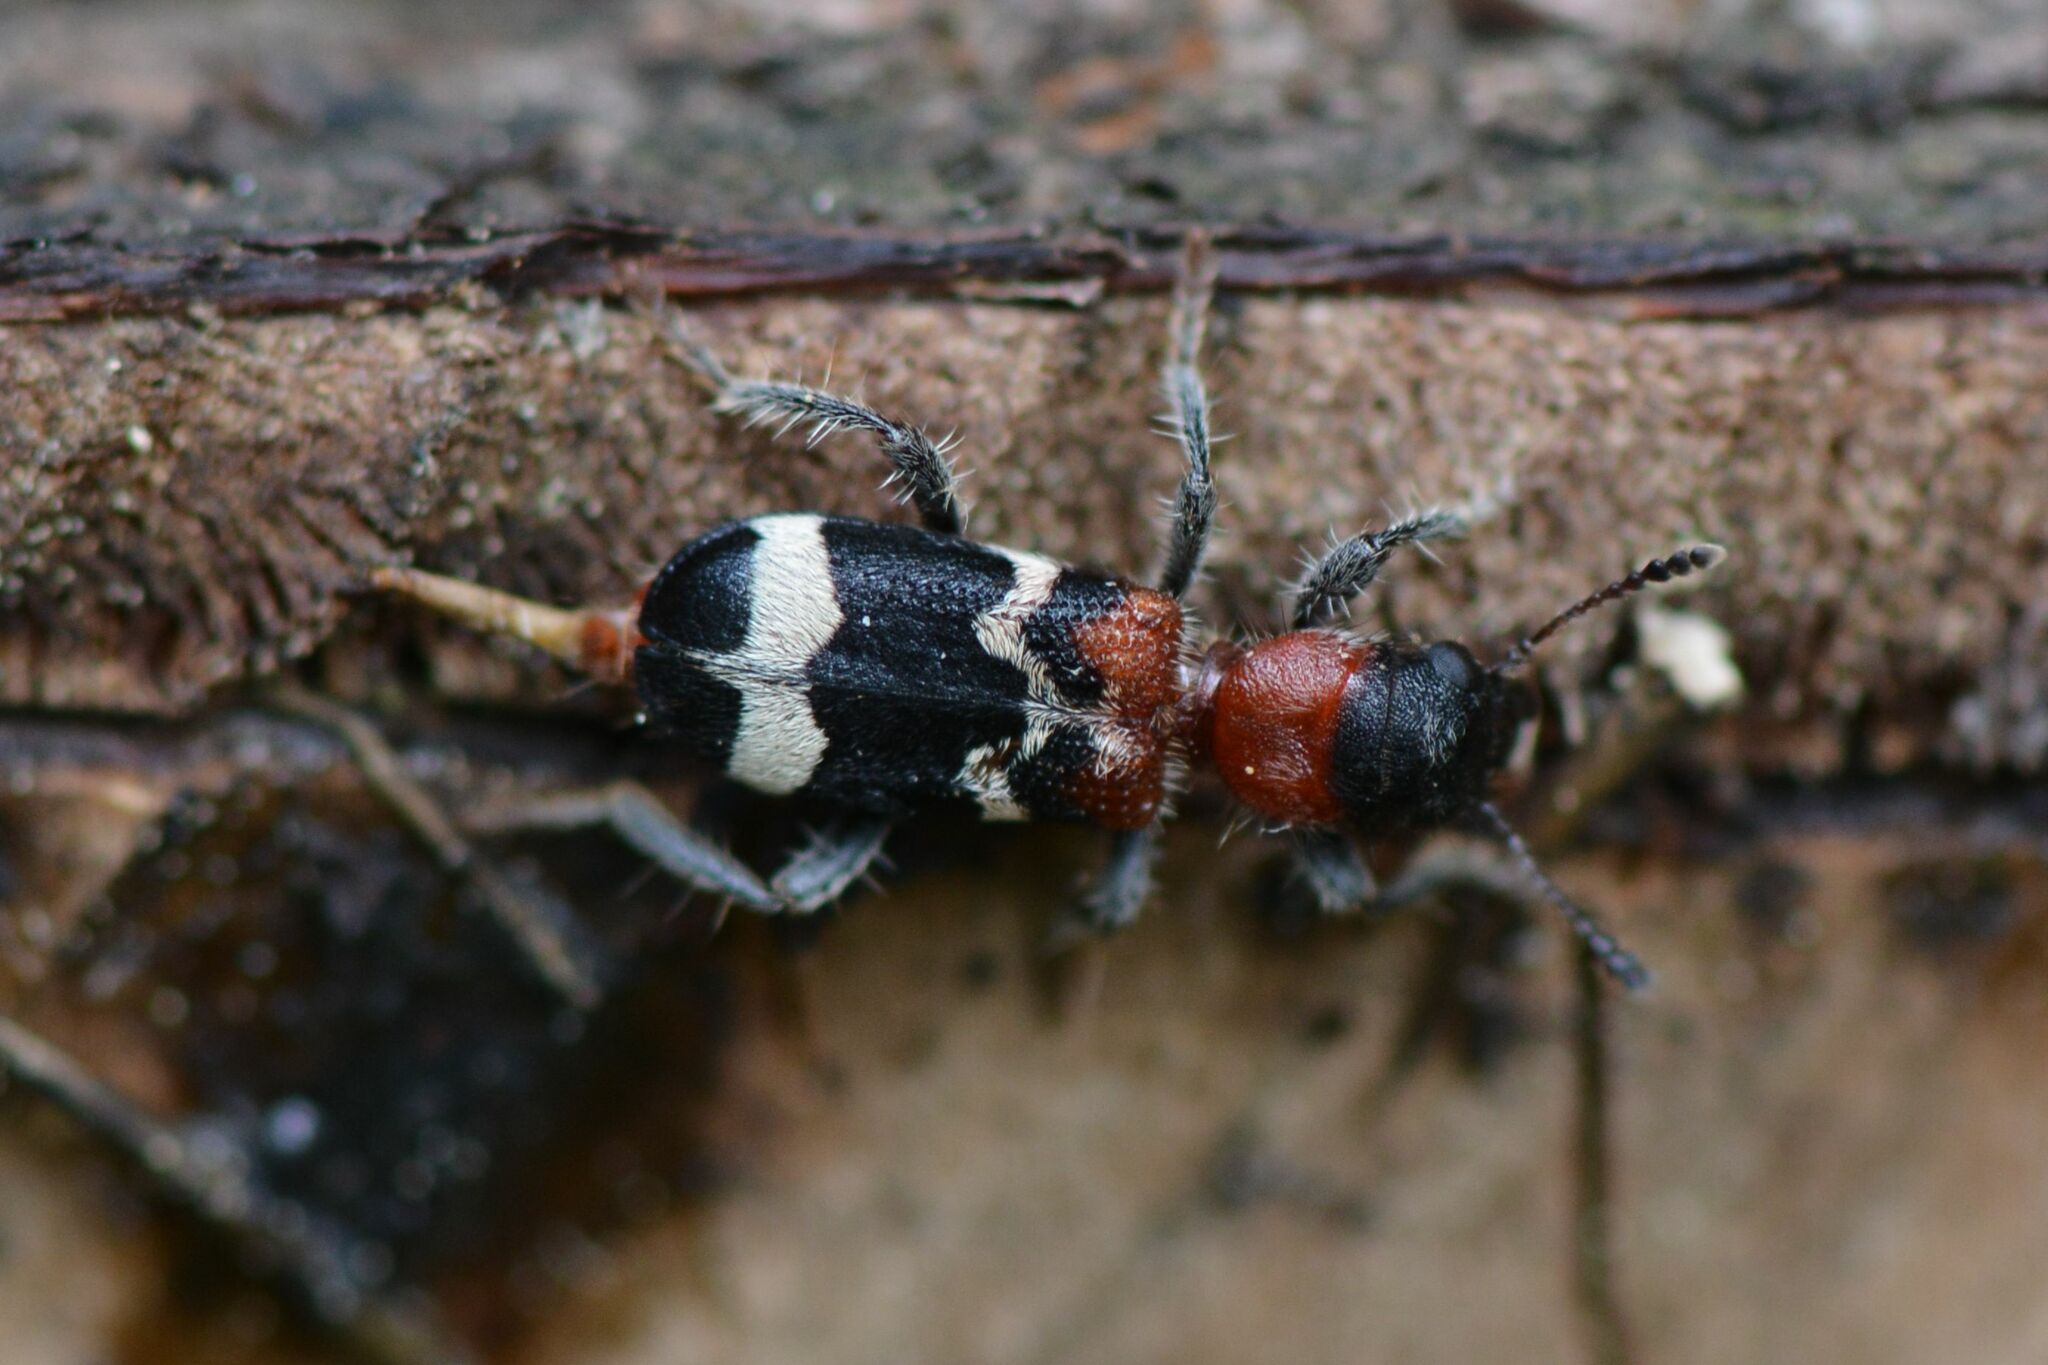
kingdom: Animalia
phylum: Arthropoda
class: Insecta
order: Coleoptera
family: Cleridae
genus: Thanasimus
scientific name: Thanasimus formicarius
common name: Ant beetle
